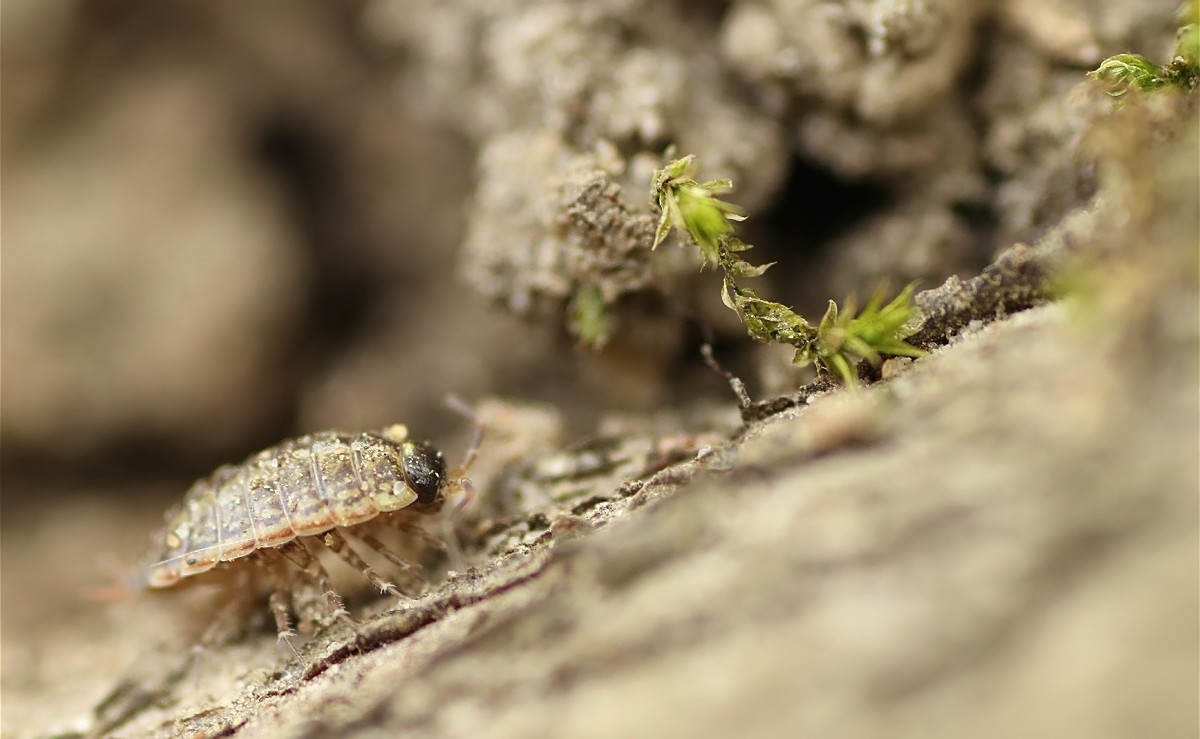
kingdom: Animalia
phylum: Arthropoda
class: Malacostraca
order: Isopoda
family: Philosciidae
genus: Philoscia
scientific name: Philoscia muscorum
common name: Common striped woodlouse
